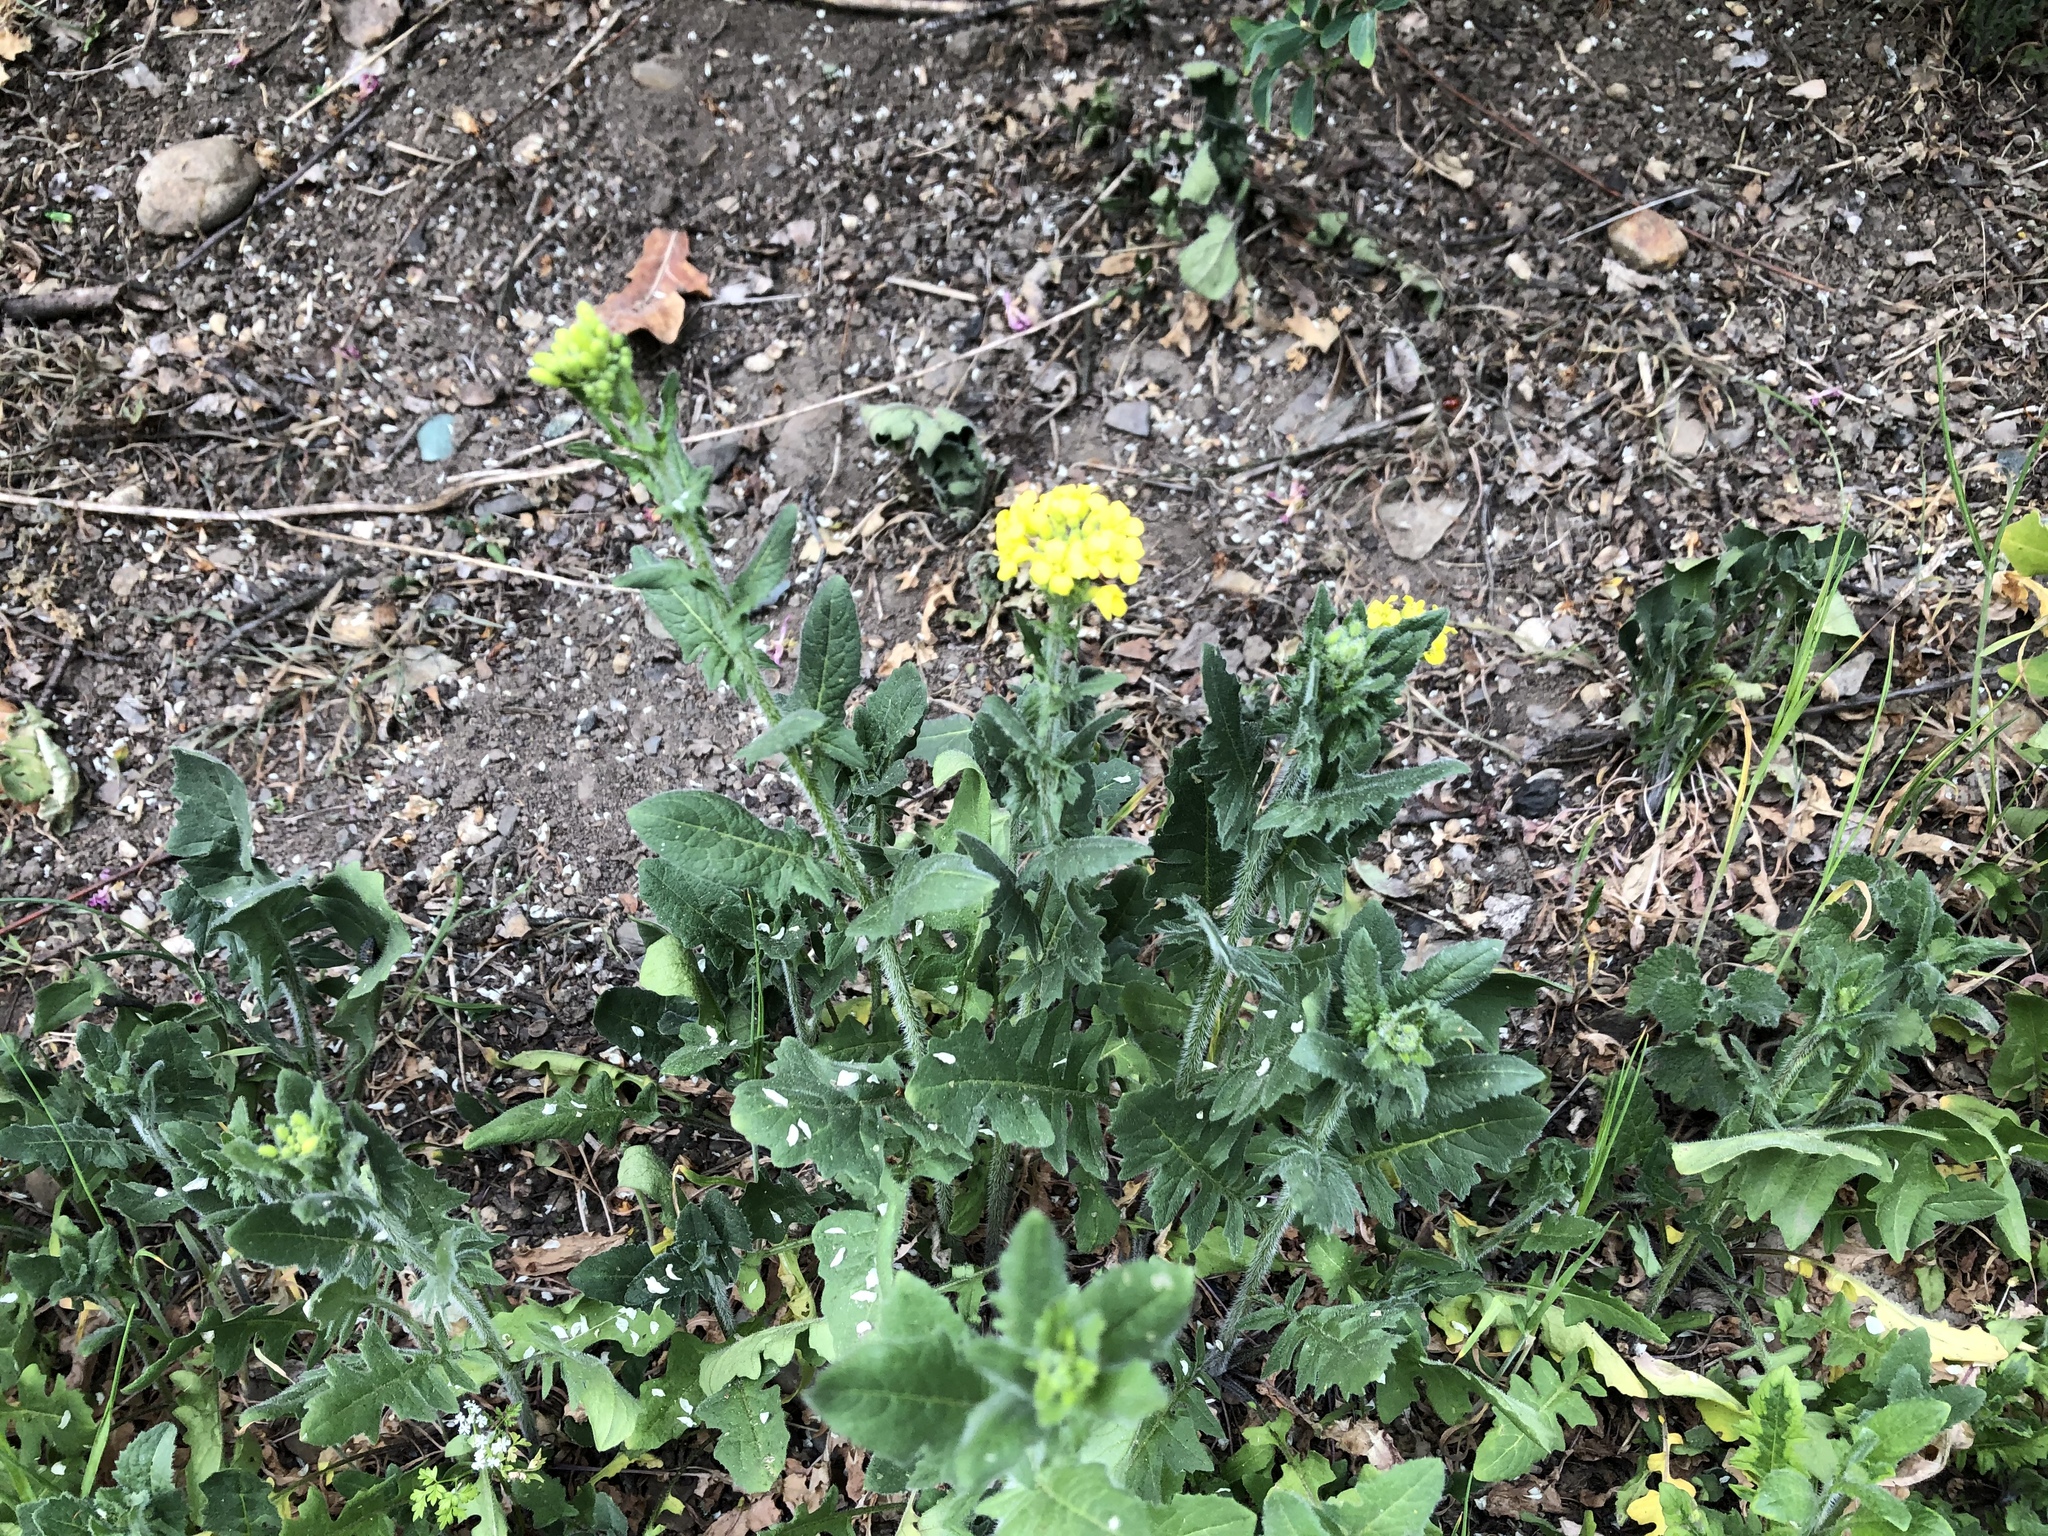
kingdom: Plantae
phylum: Tracheophyta
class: Magnoliopsida
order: Brassicales
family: Brassicaceae
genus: Sisymbrium
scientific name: Sisymbrium loeselii
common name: False london-rocket
